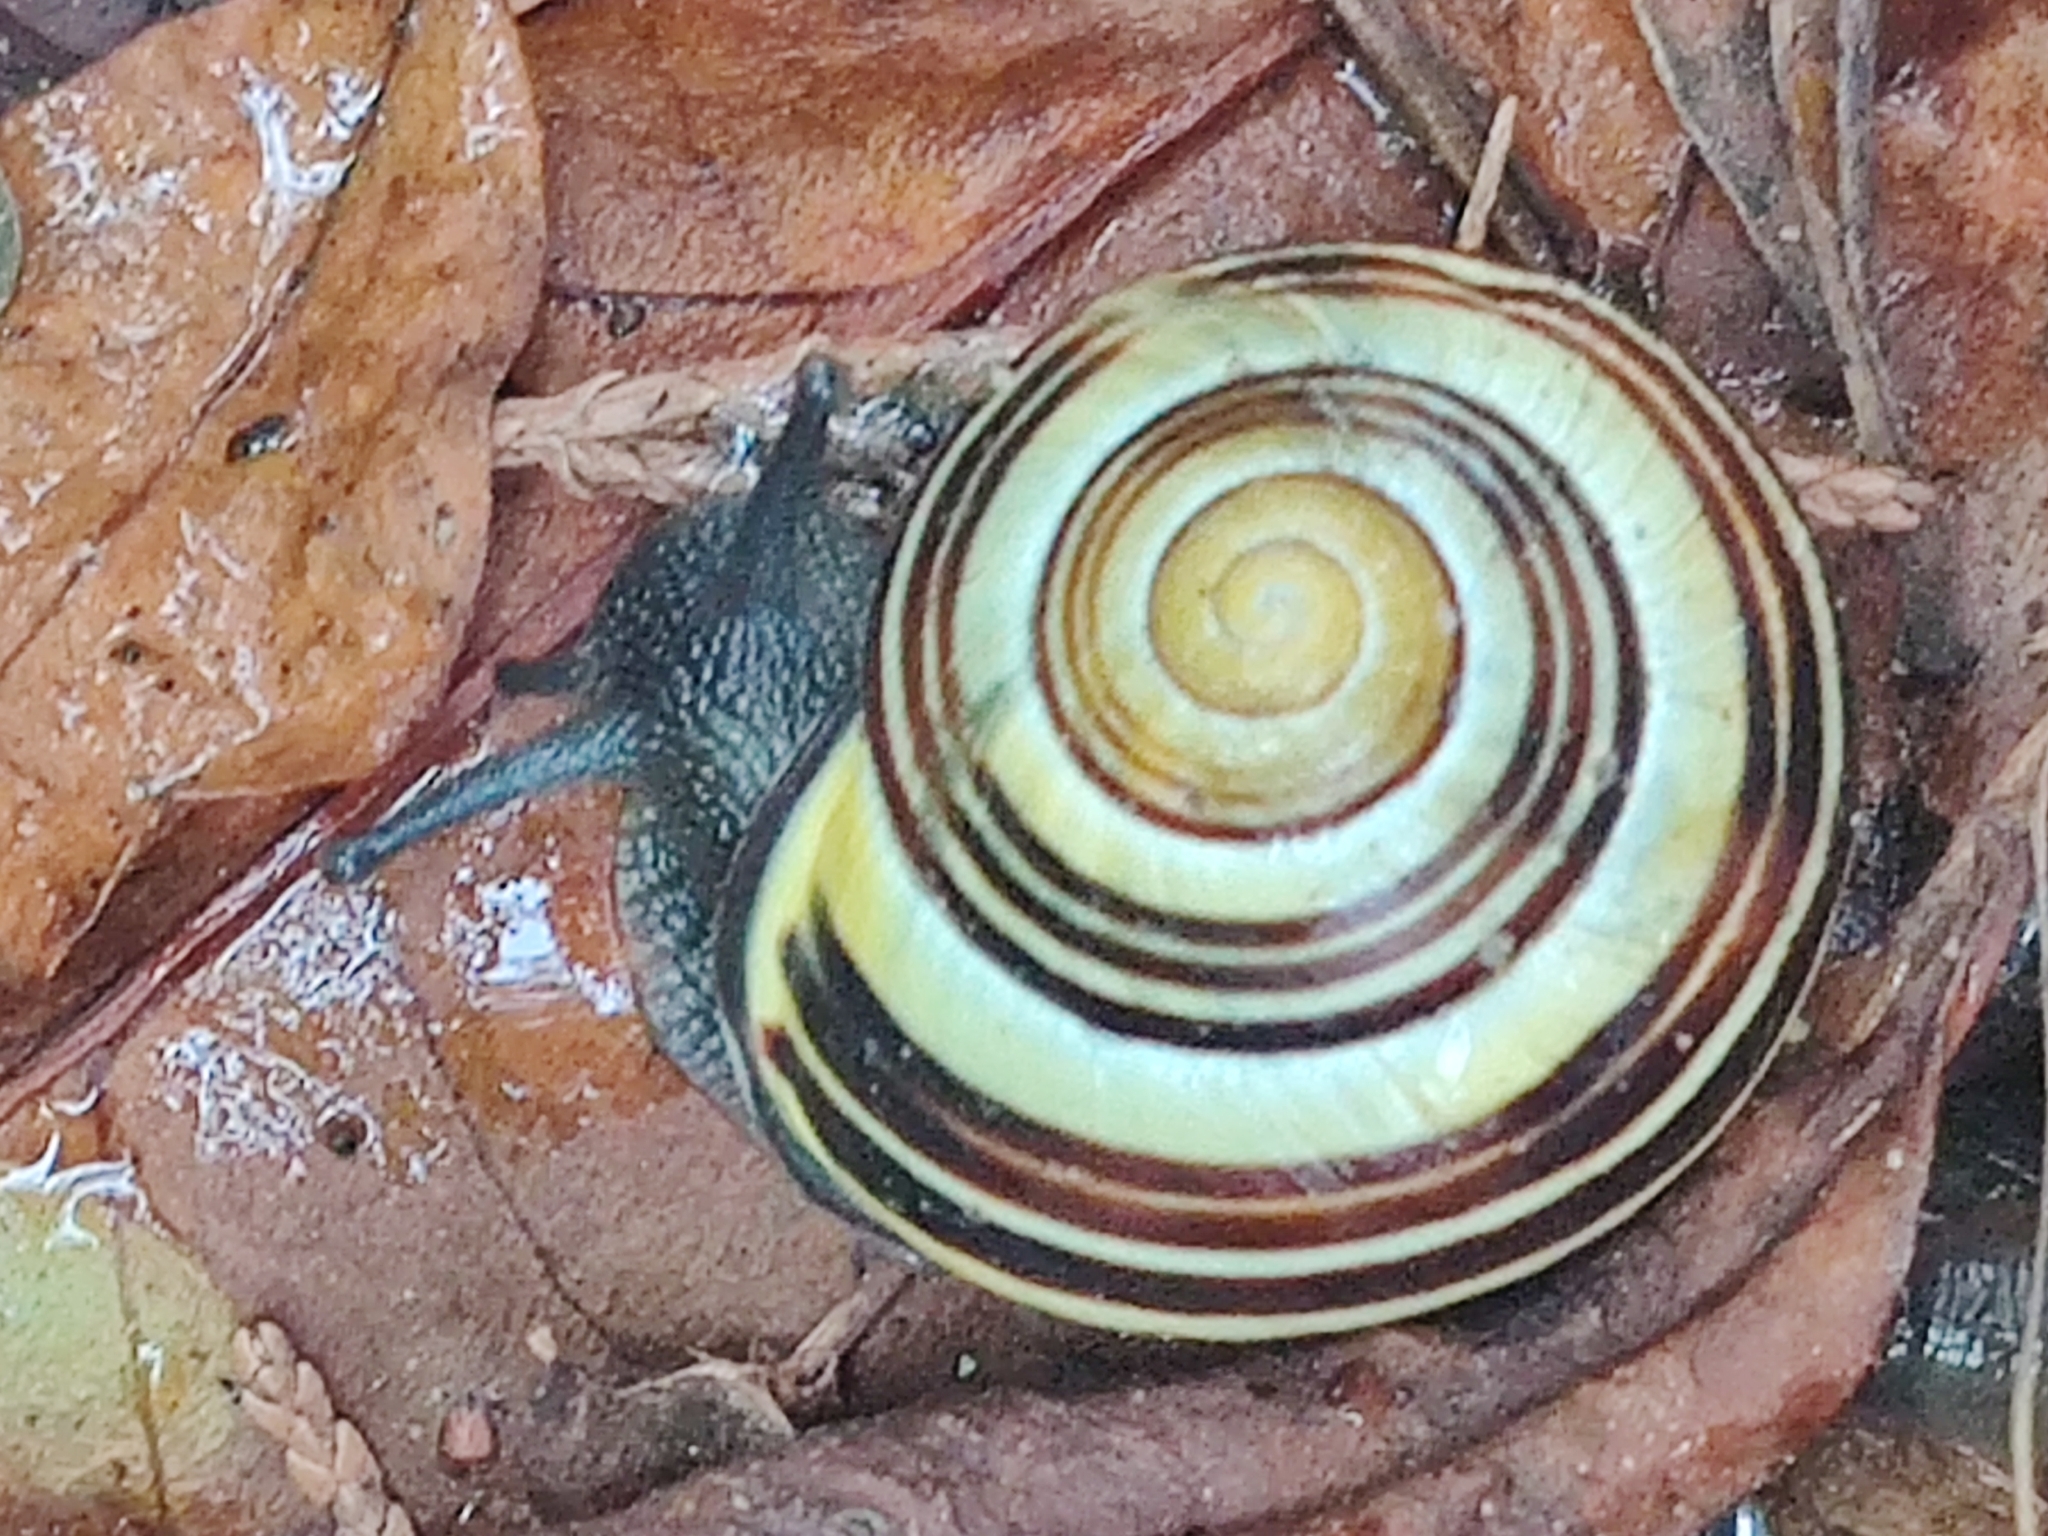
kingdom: Animalia
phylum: Mollusca
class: Gastropoda
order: Stylommatophora
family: Helicidae
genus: Cepaea
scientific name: Cepaea nemoralis
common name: Grovesnail
